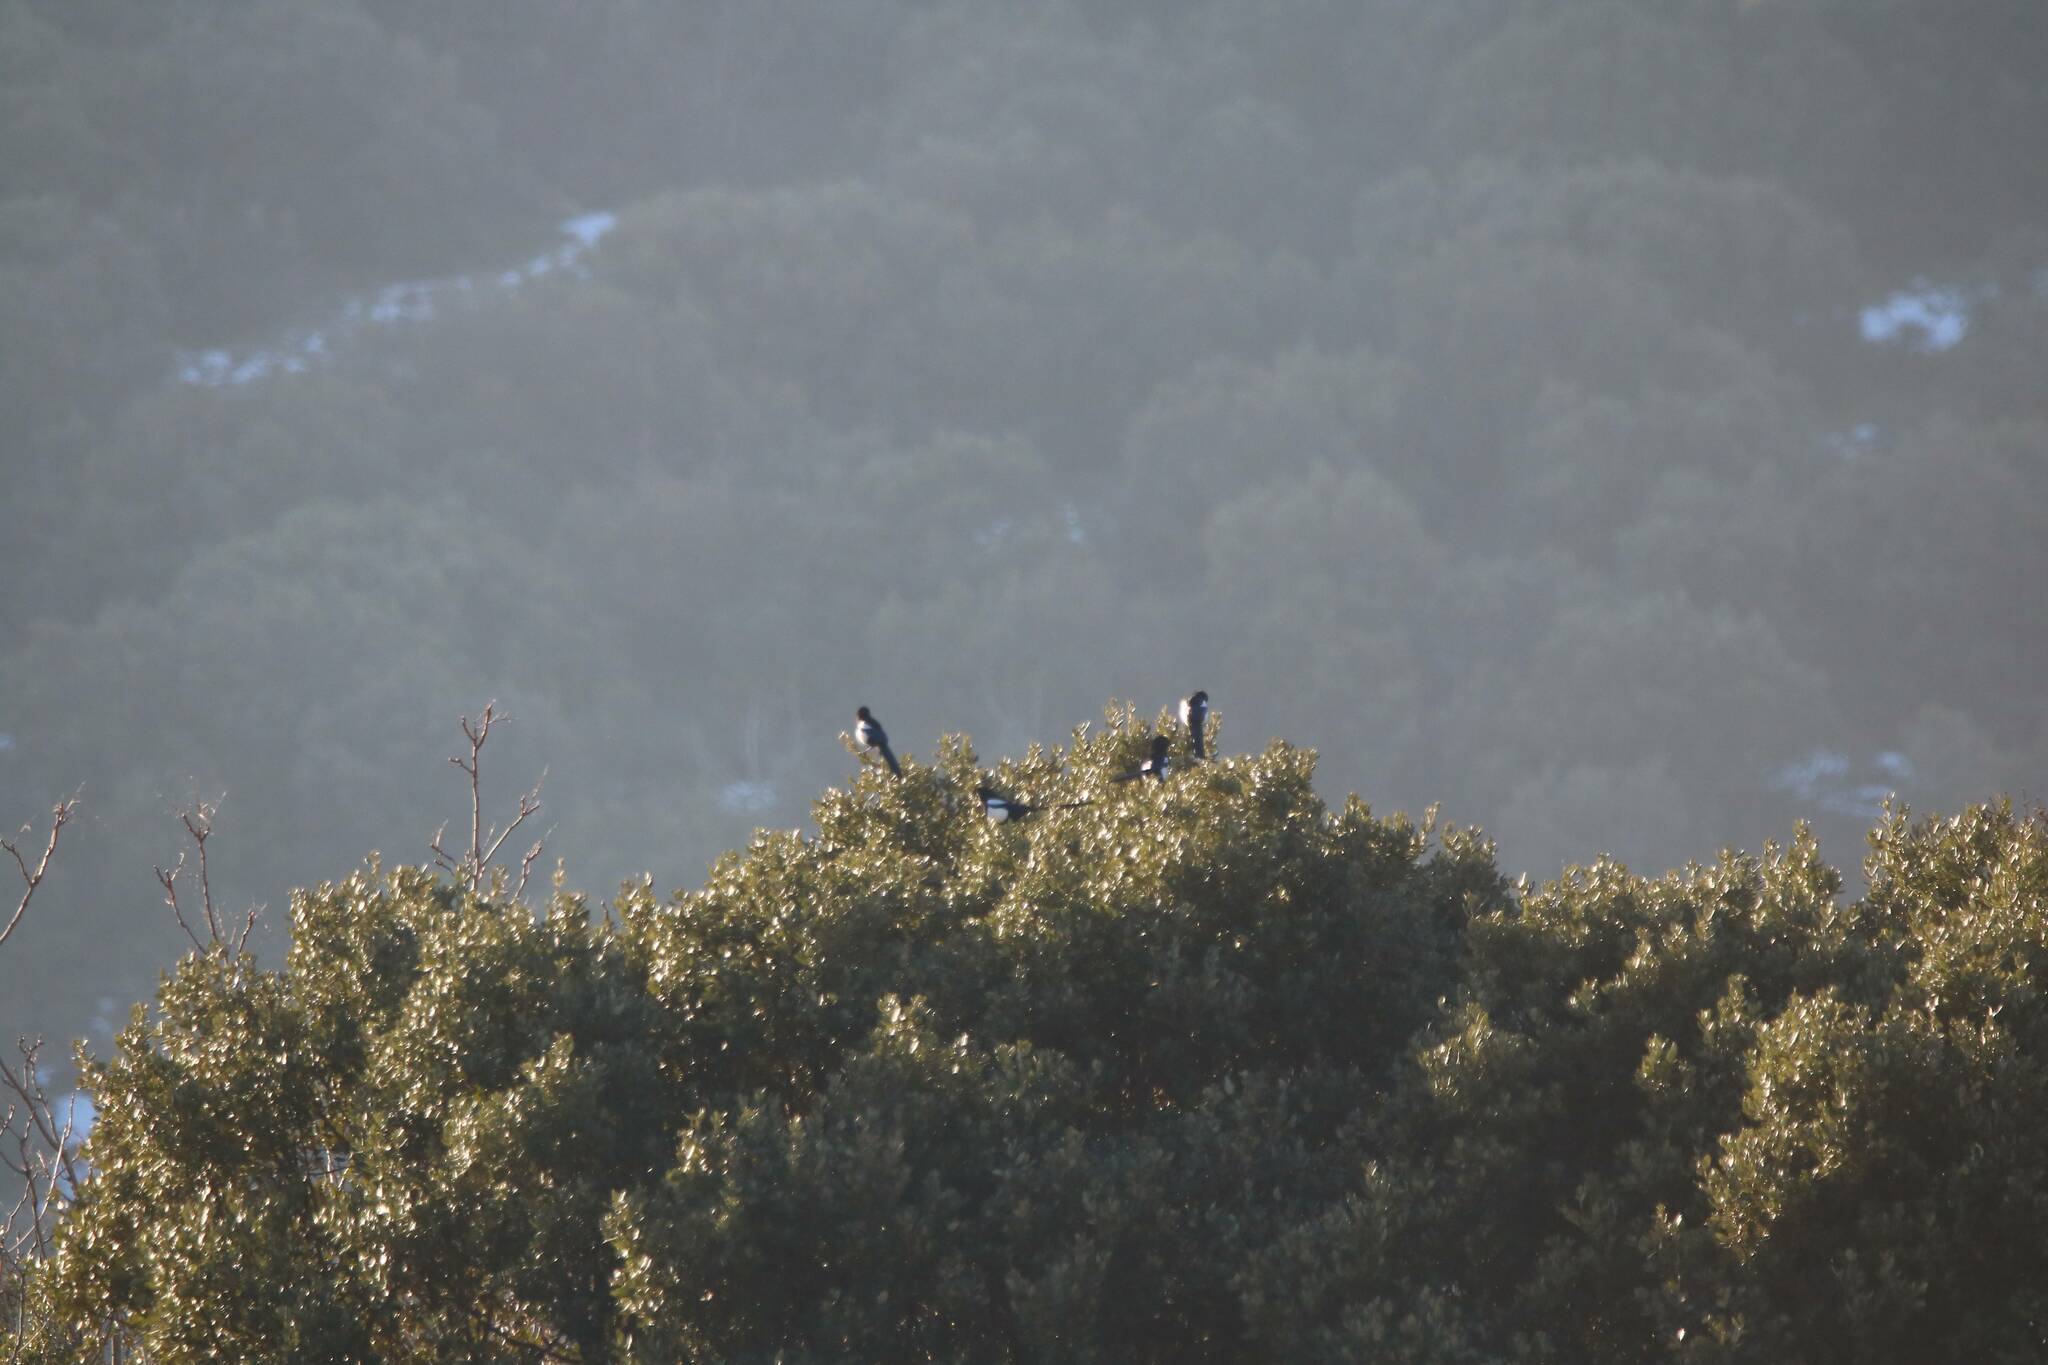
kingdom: Animalia
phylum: Chordata
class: Aves
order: Passeriformes
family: Corvidae
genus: Pica
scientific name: Pica mauritanica
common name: Maghreb magpie
